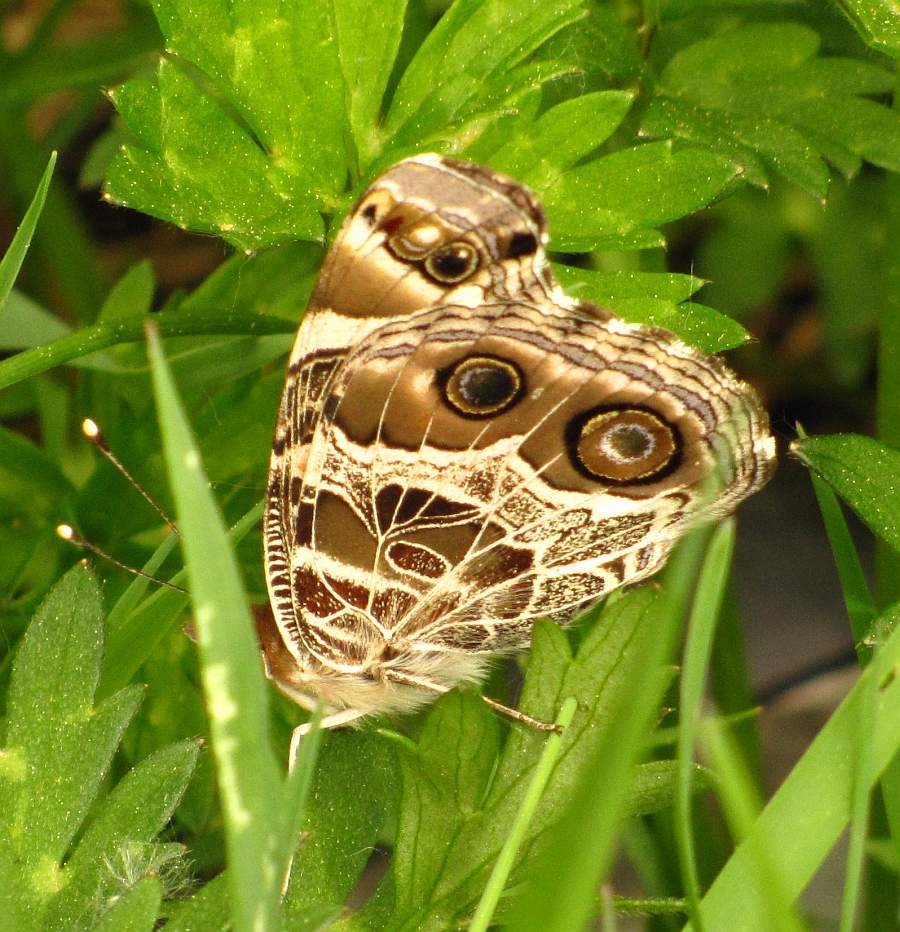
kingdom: Animalia
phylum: Arthropoda
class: Insecta
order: Lepidoptera
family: Nymphalidae
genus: Vanessa
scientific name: Vanessa virginiensis
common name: American lady
